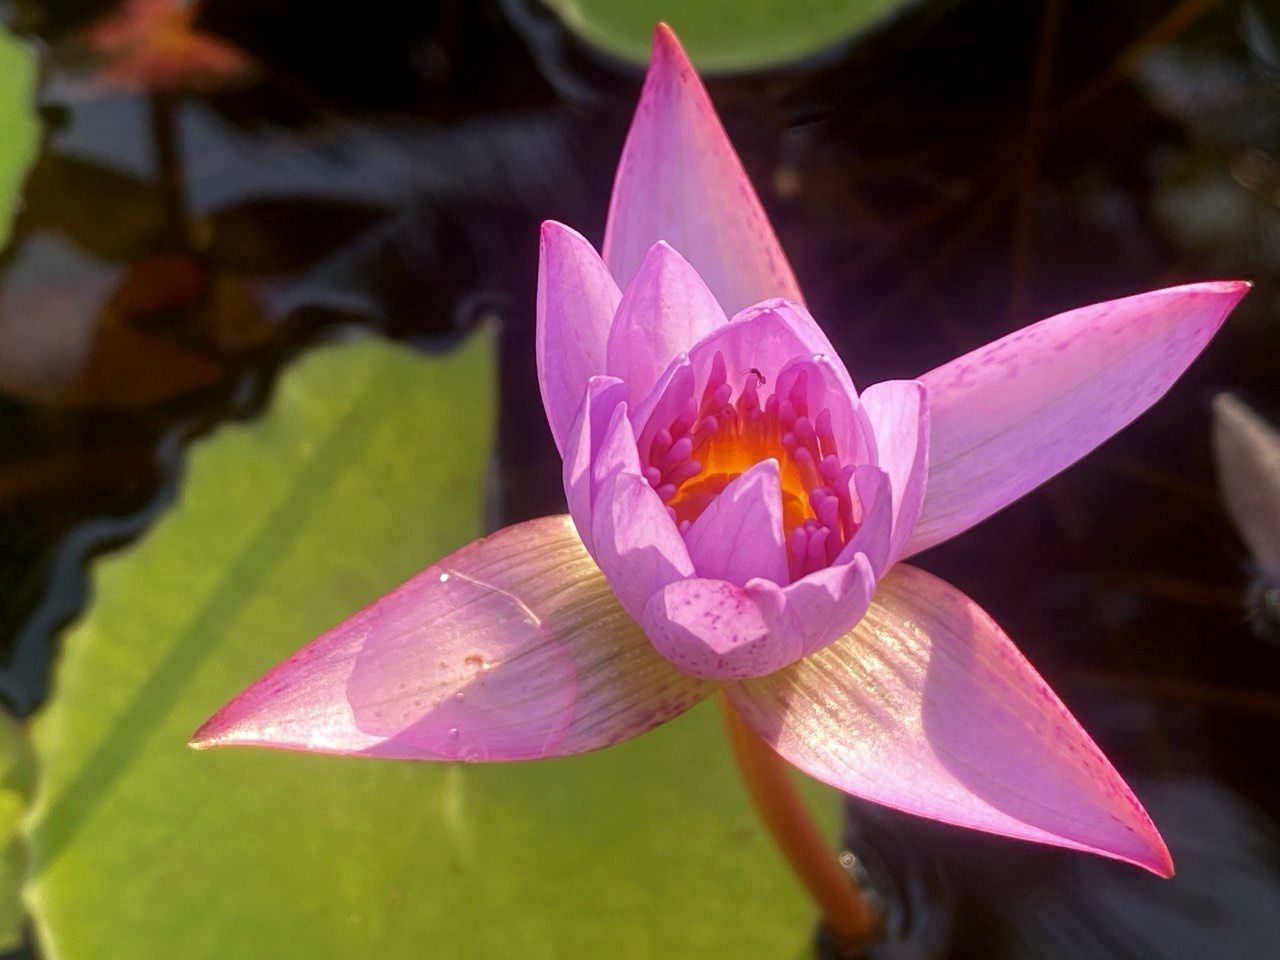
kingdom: Plantae
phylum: Tracheophyta
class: Magnoliopsida
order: Nymphaeales
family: Nymphaeaceae
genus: Nymphaea
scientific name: Nymphaea nouchali
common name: Blue lotus
